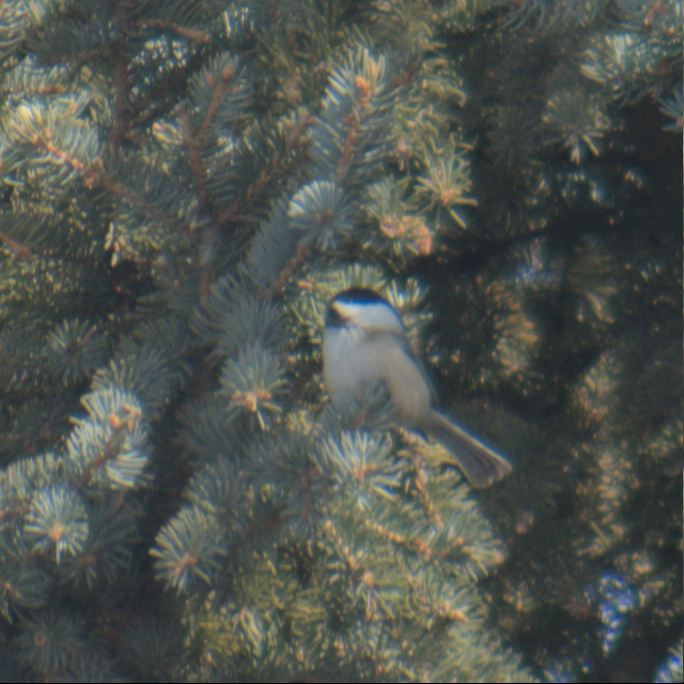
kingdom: Animalia
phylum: Chordata
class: Aves
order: Passeriformes
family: Paridae
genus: Poecile
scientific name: Poecile atricapillus
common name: Black-capped chickadee
